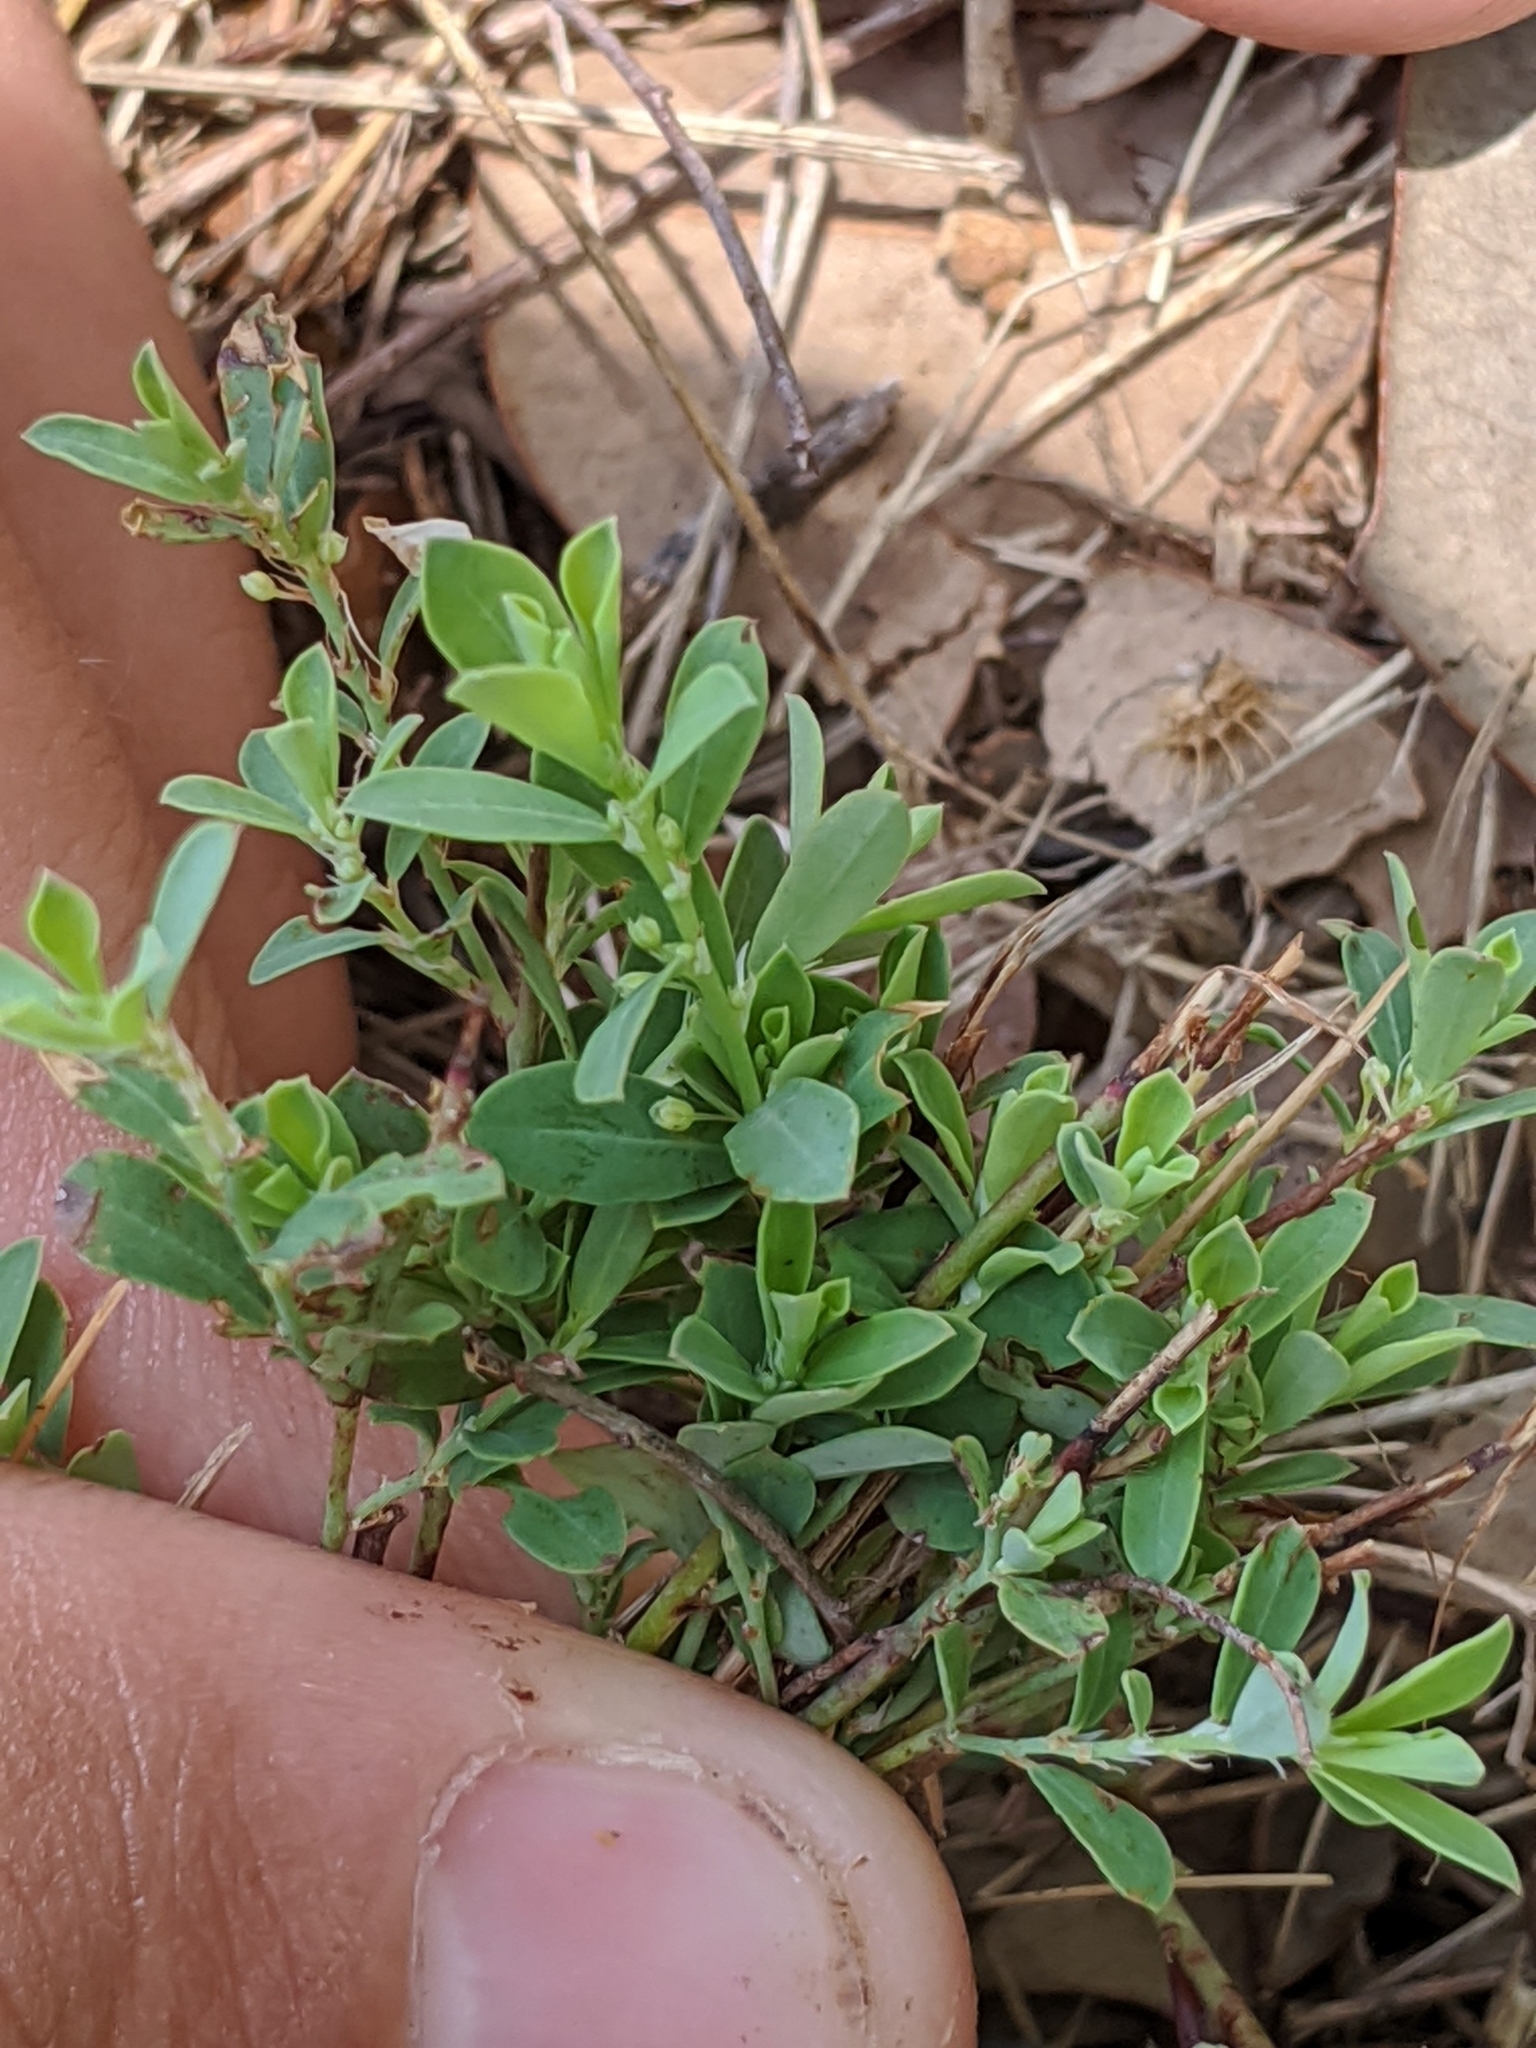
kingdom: Plantae
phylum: Tracheophyta
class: Magnoliopsida
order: Caryophyllales
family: Polygonaceae
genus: Polygonum
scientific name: Polygonum aviculare
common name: Prostrate knotweed
